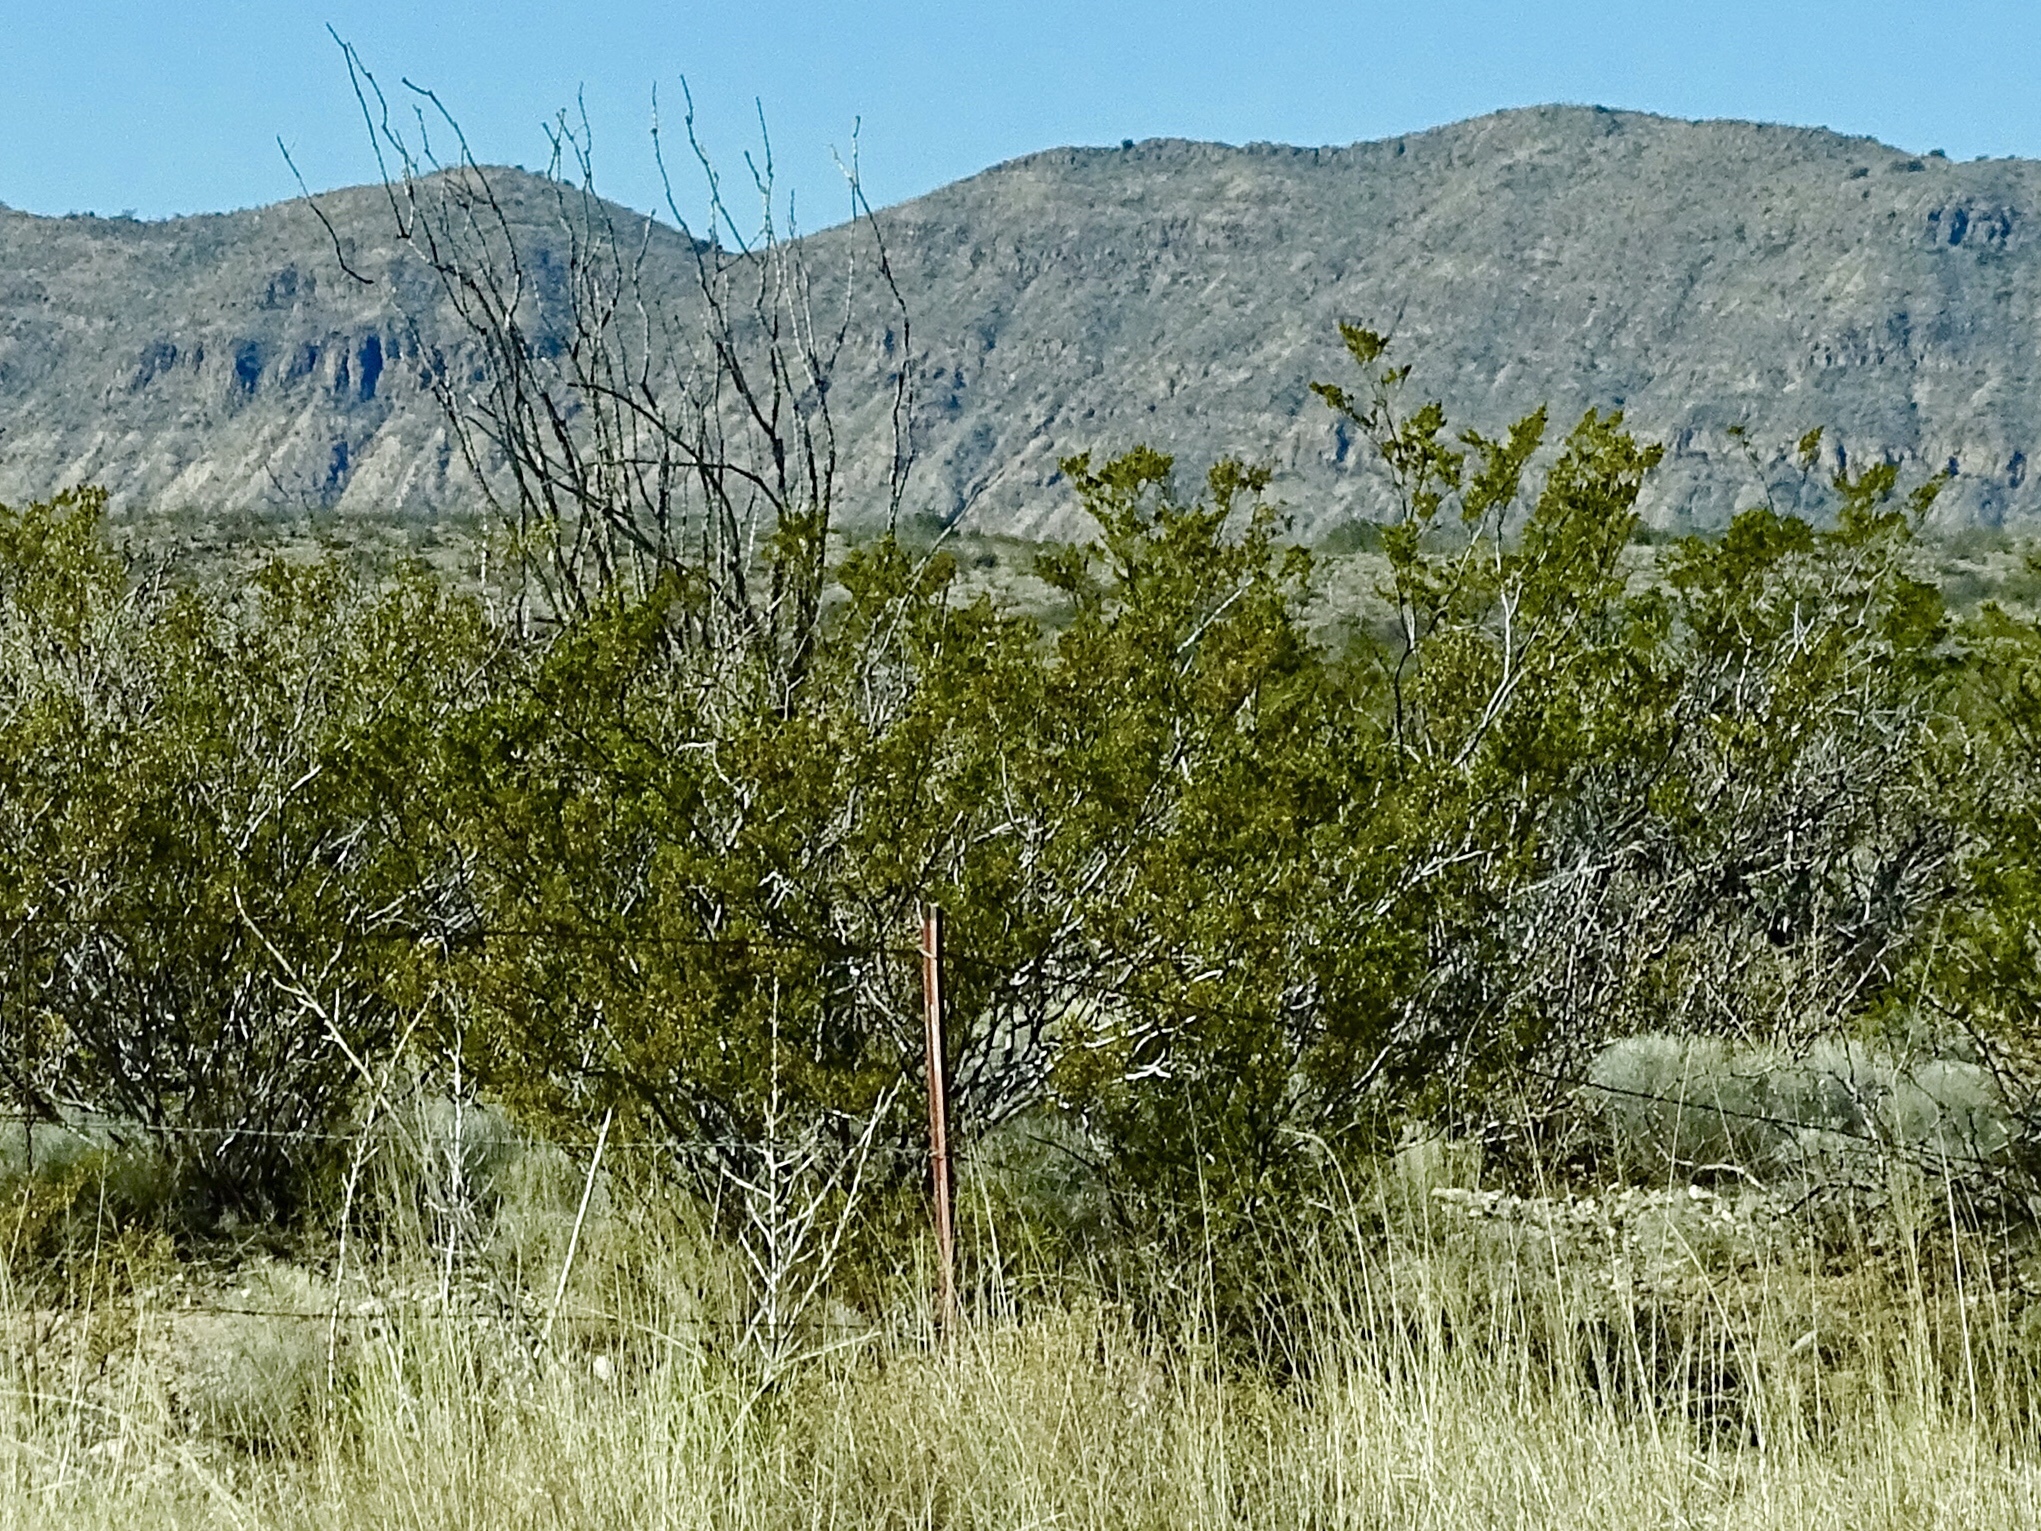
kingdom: Plantae
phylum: Tracheophyta
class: Magnoliopsida
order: Zygophyllales
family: Zygophyllaceae
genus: Larrea
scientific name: Larrea tridentata
